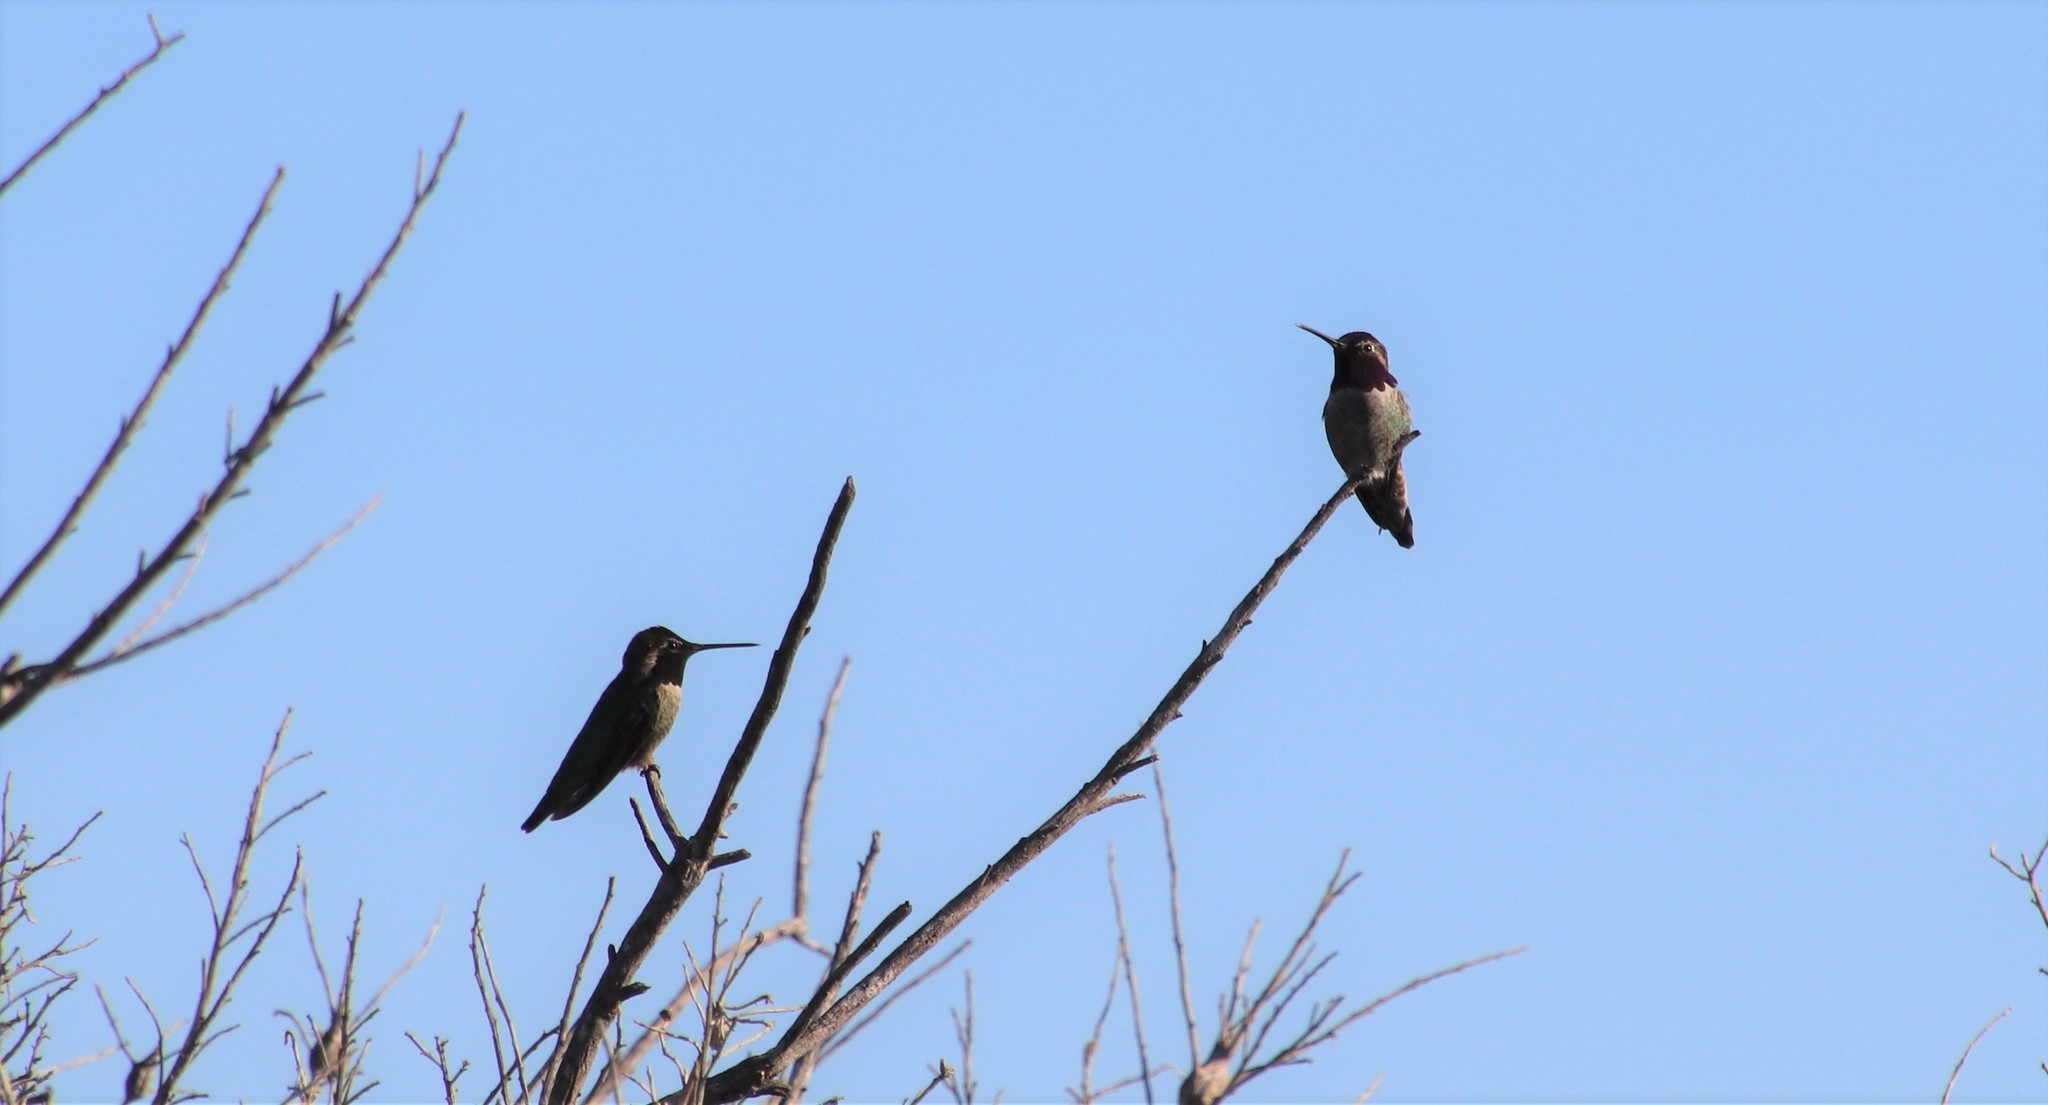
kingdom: Animalia
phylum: Chordata
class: Aves
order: Apodiformes
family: Trochilidae
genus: Calypte
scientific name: Calypte anna
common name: Anna's hummingbird
